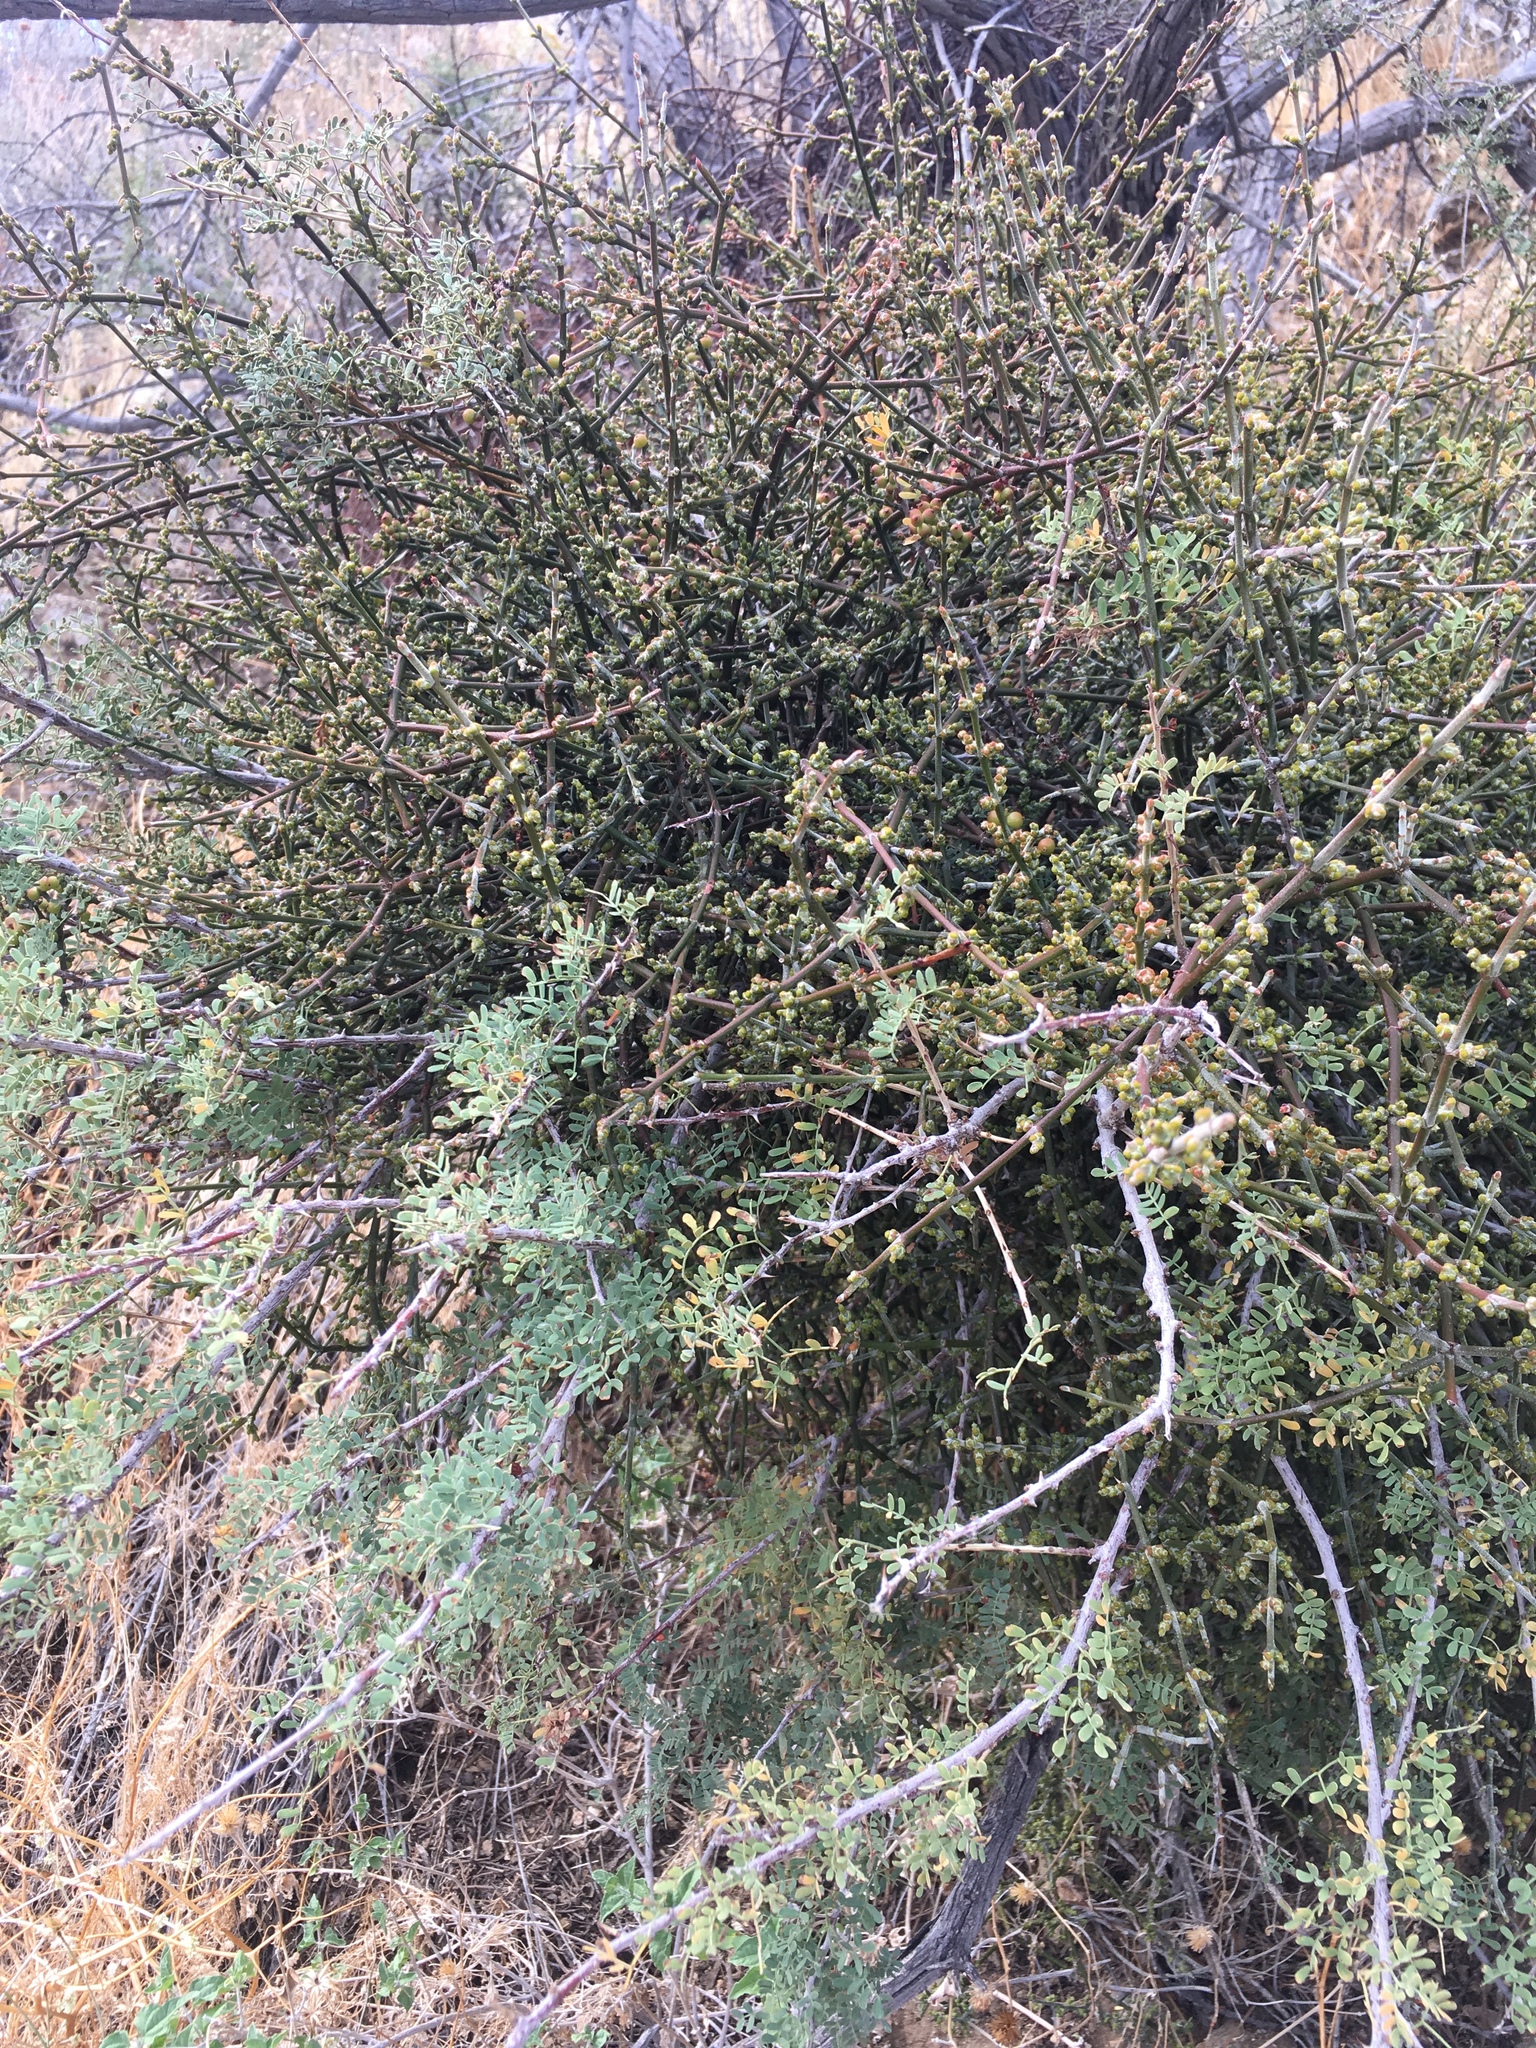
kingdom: Plantae
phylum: Tracheophyta
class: Magnoliopsida
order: Santalales
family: Viscaceae
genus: Phoradendron
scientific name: Phoradendron californicum
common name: Acacia mistletoe
